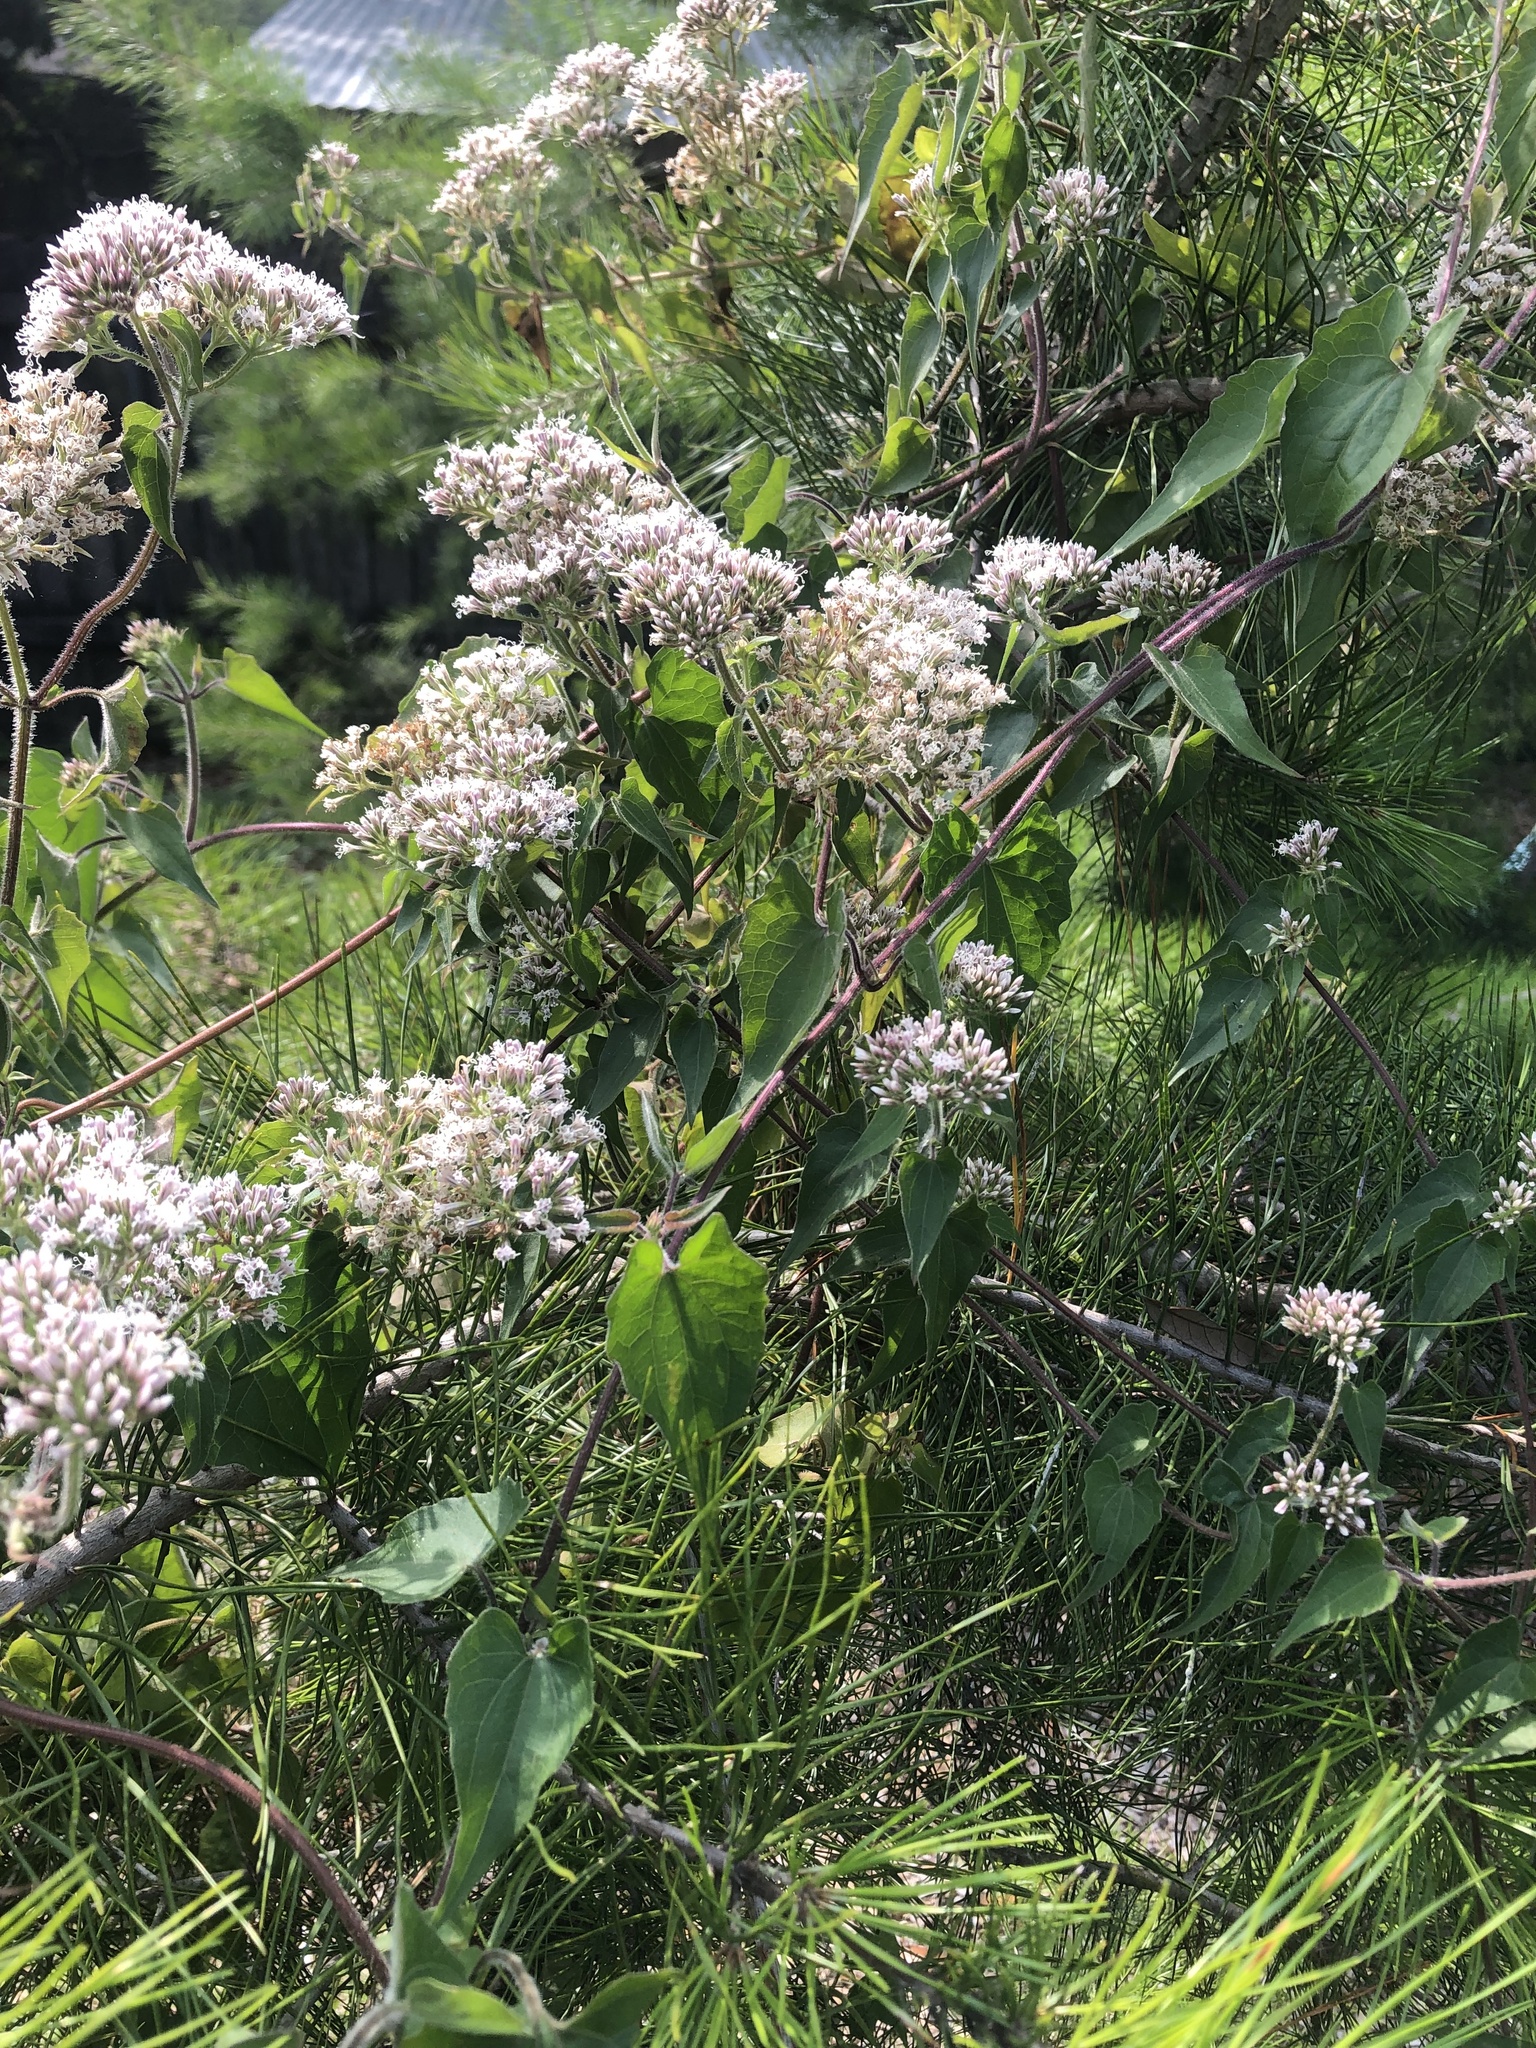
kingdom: Plantae
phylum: Tracheophyta
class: Magnoliopsida
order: Asterales
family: Asteraceae
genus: Mikania
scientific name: Mikania scandens
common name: Climbing hempvine
